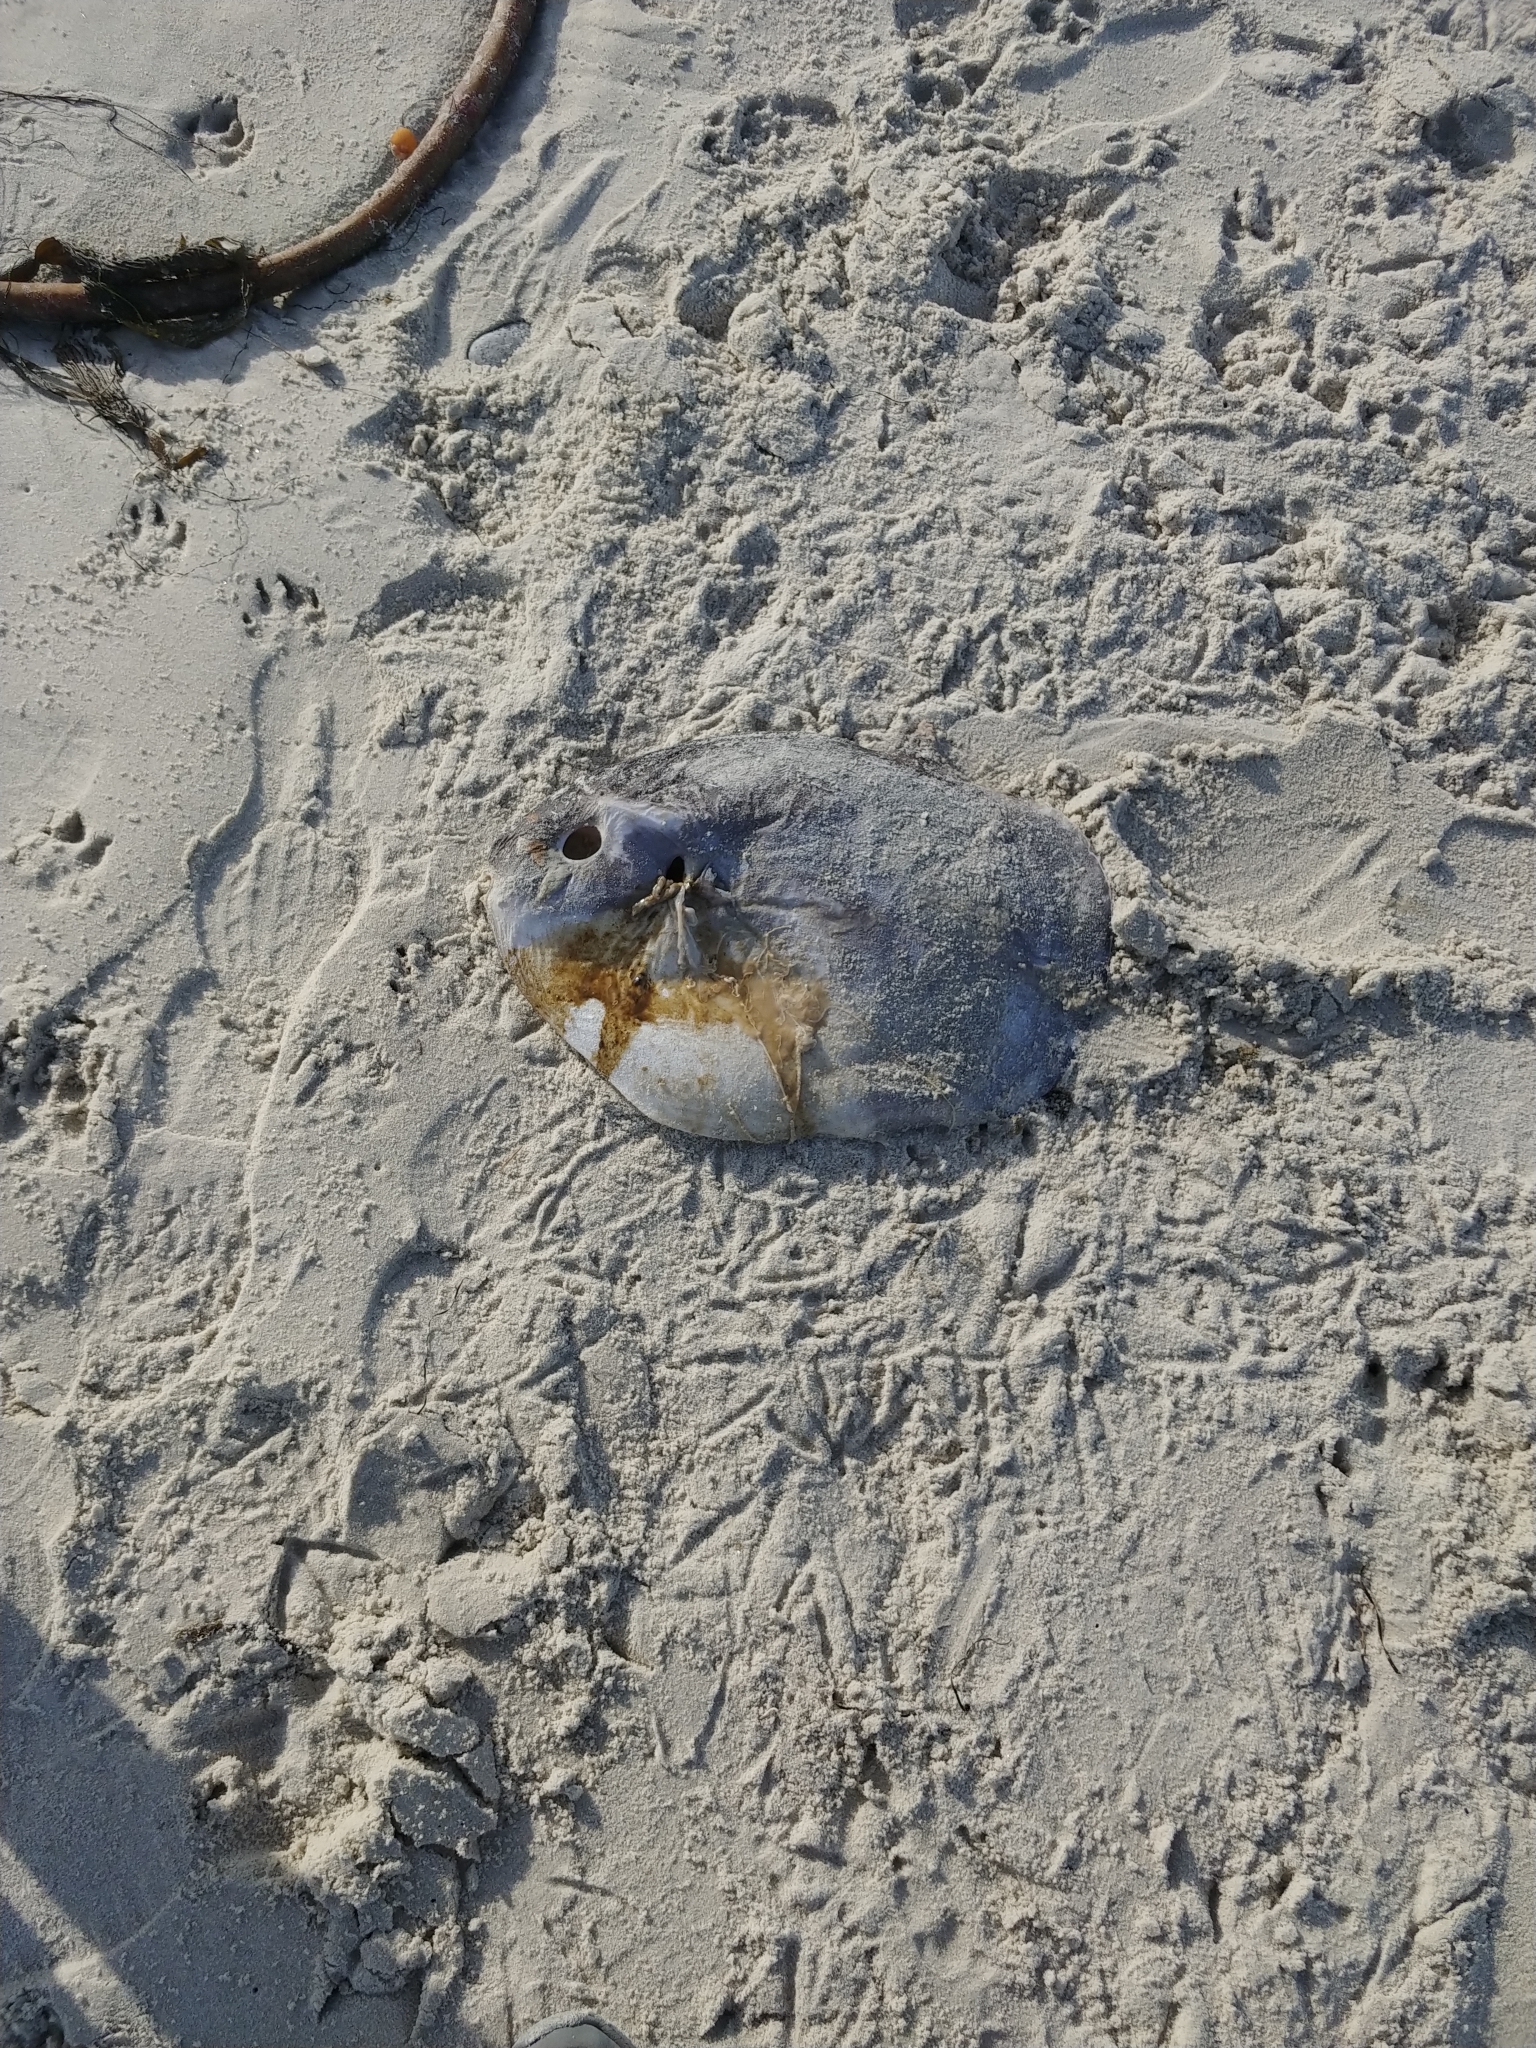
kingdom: Animalia
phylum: Chordata
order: Tetraodontiformes
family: Molidae
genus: Mola
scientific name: Mola mola
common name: Ocean sunfish
